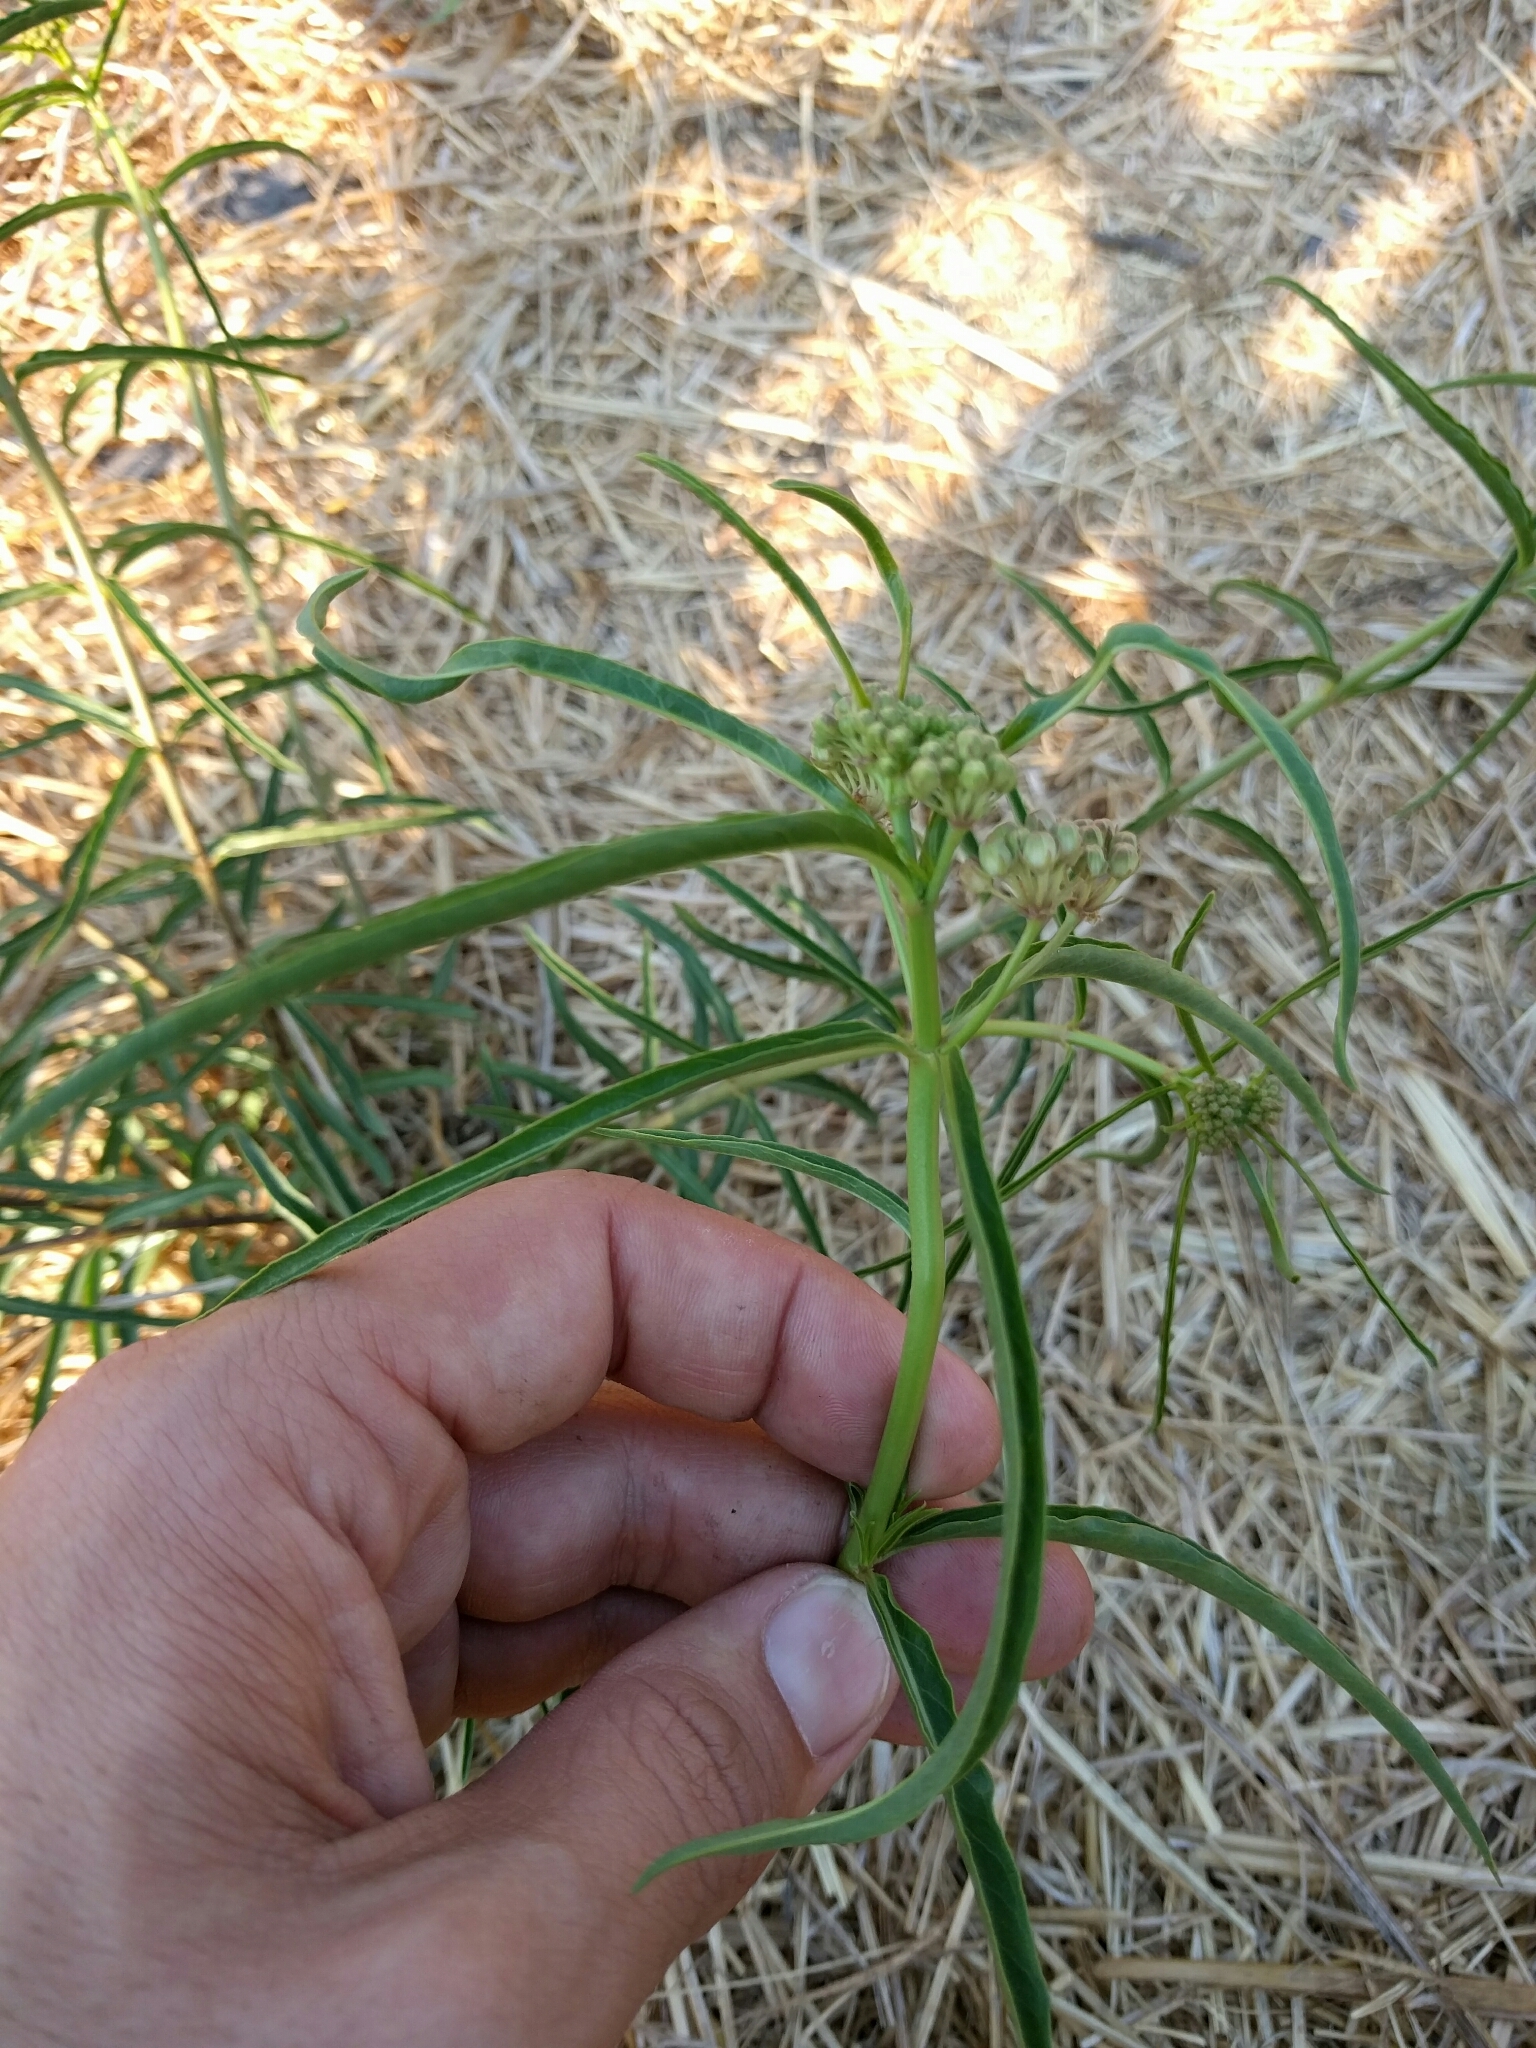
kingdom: Plantae
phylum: Tracheophyta
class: Magnoliopsida
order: Gentianales
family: Apocynaceae
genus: Asclepias
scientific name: Asclepias fascicularis
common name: Mexican milkweed
